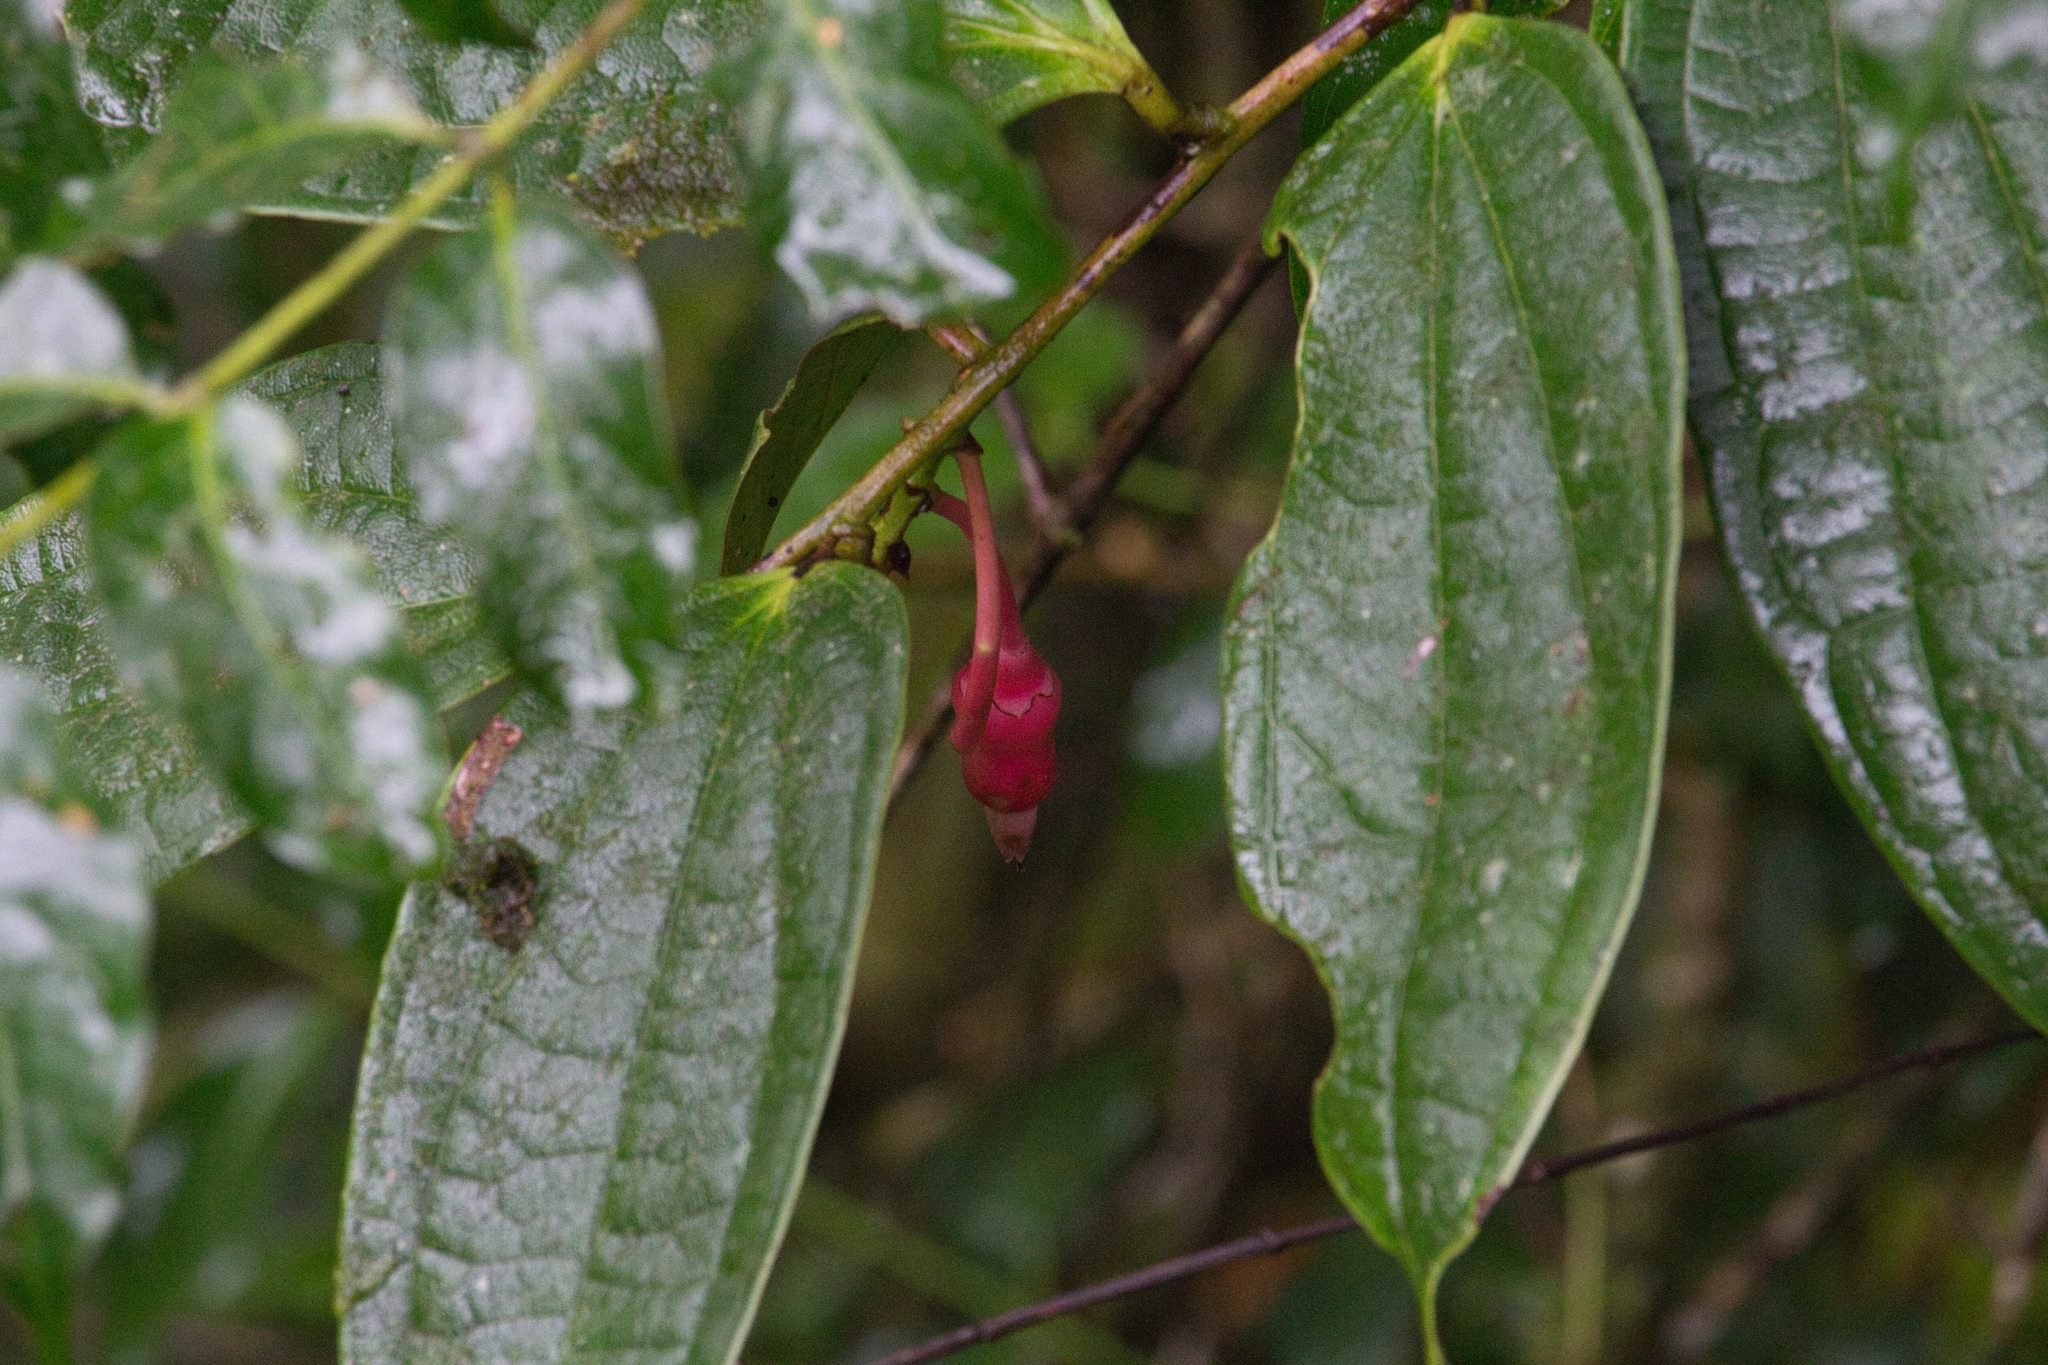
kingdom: Plantae
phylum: Tracheophyta
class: Magnoliopsida
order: Ericales
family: Ericaceae
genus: Psammisia
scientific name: Psammisia ulbrichiana
